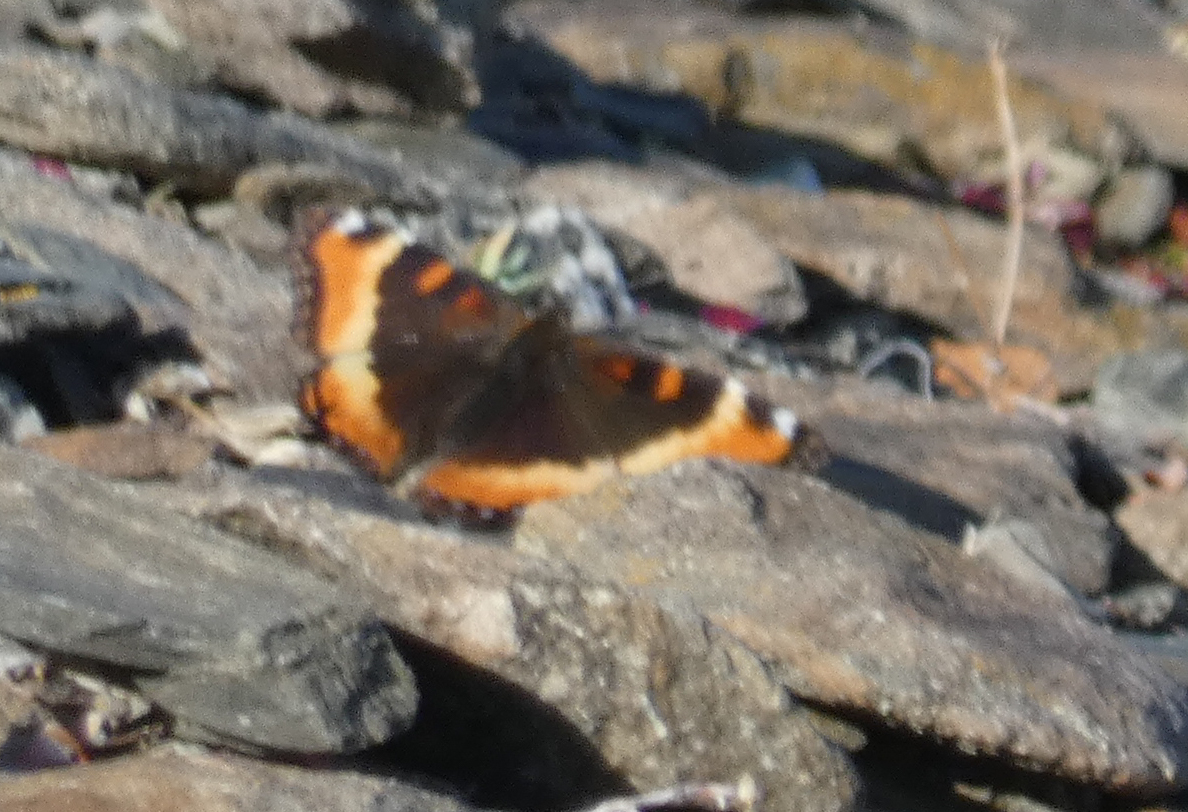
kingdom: Animalia
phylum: Arthropoda
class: Insecta
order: Lepidoptera
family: Nymphalidae
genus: Aglais
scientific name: Aglais milberti
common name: Milbert's tortoiseshell
